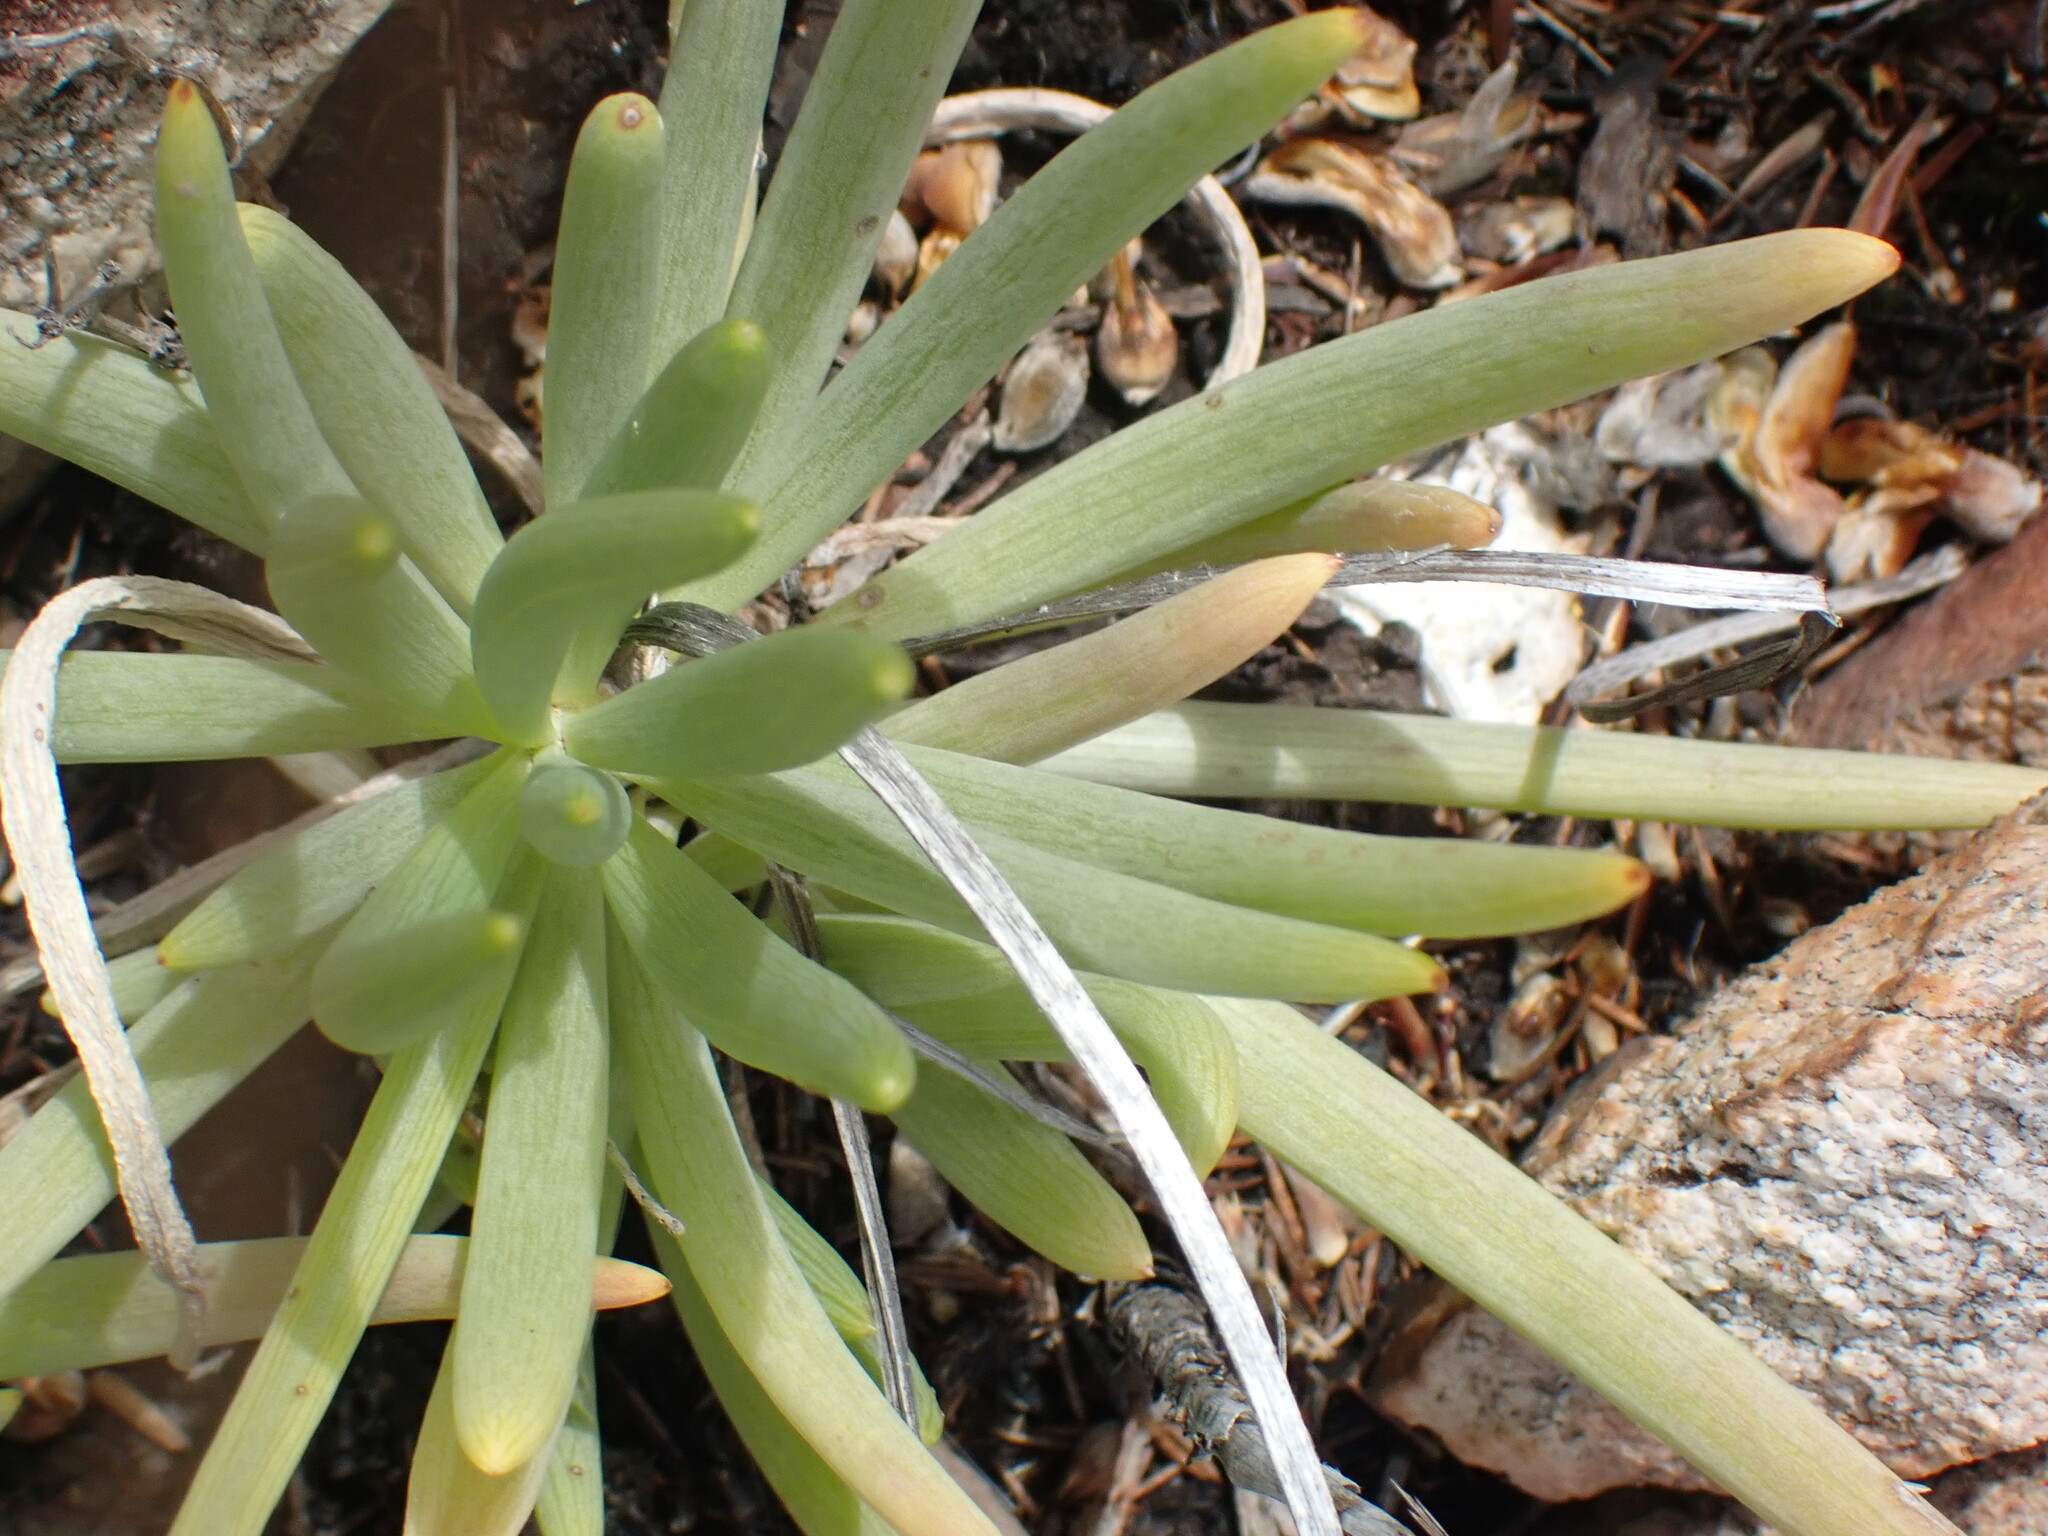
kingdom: Plantae
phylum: Tracheophyta
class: Magnoliopsida
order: Asterales
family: Asteraceae
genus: Curio
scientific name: Curio talinoides
